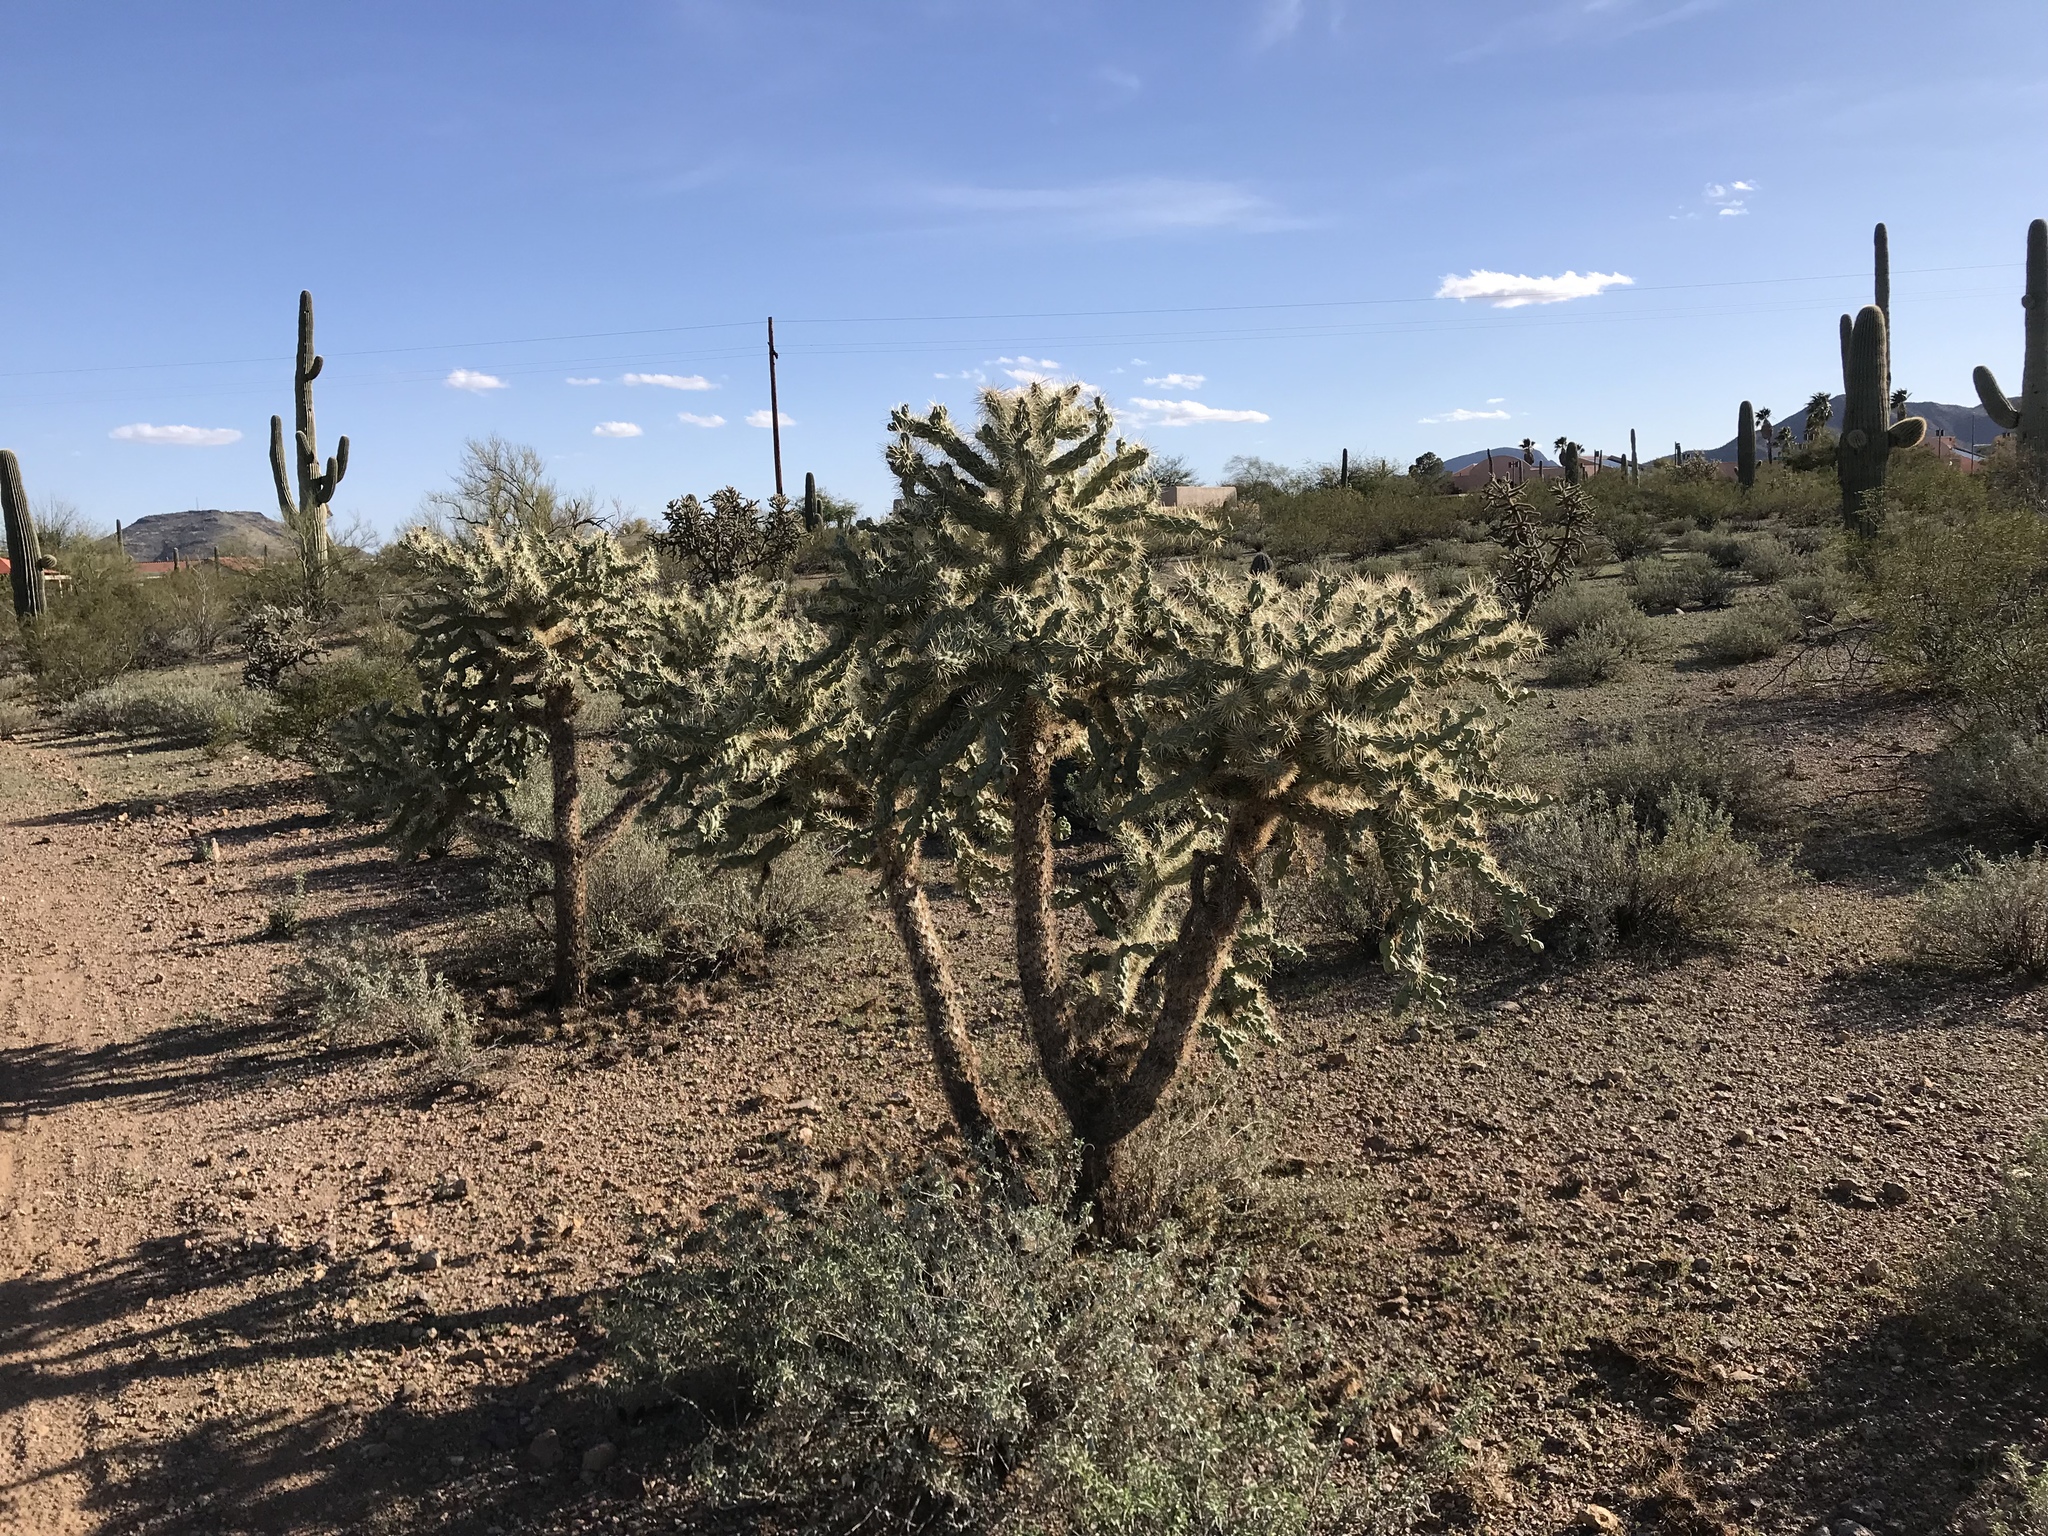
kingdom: Plantae
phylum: Tracheophyta
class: Magnoliopsida
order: Caryophyllales
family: Cactaceae
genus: Cylindropuntia
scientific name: Cylindropuntia fulgida
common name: Jumping cholla
